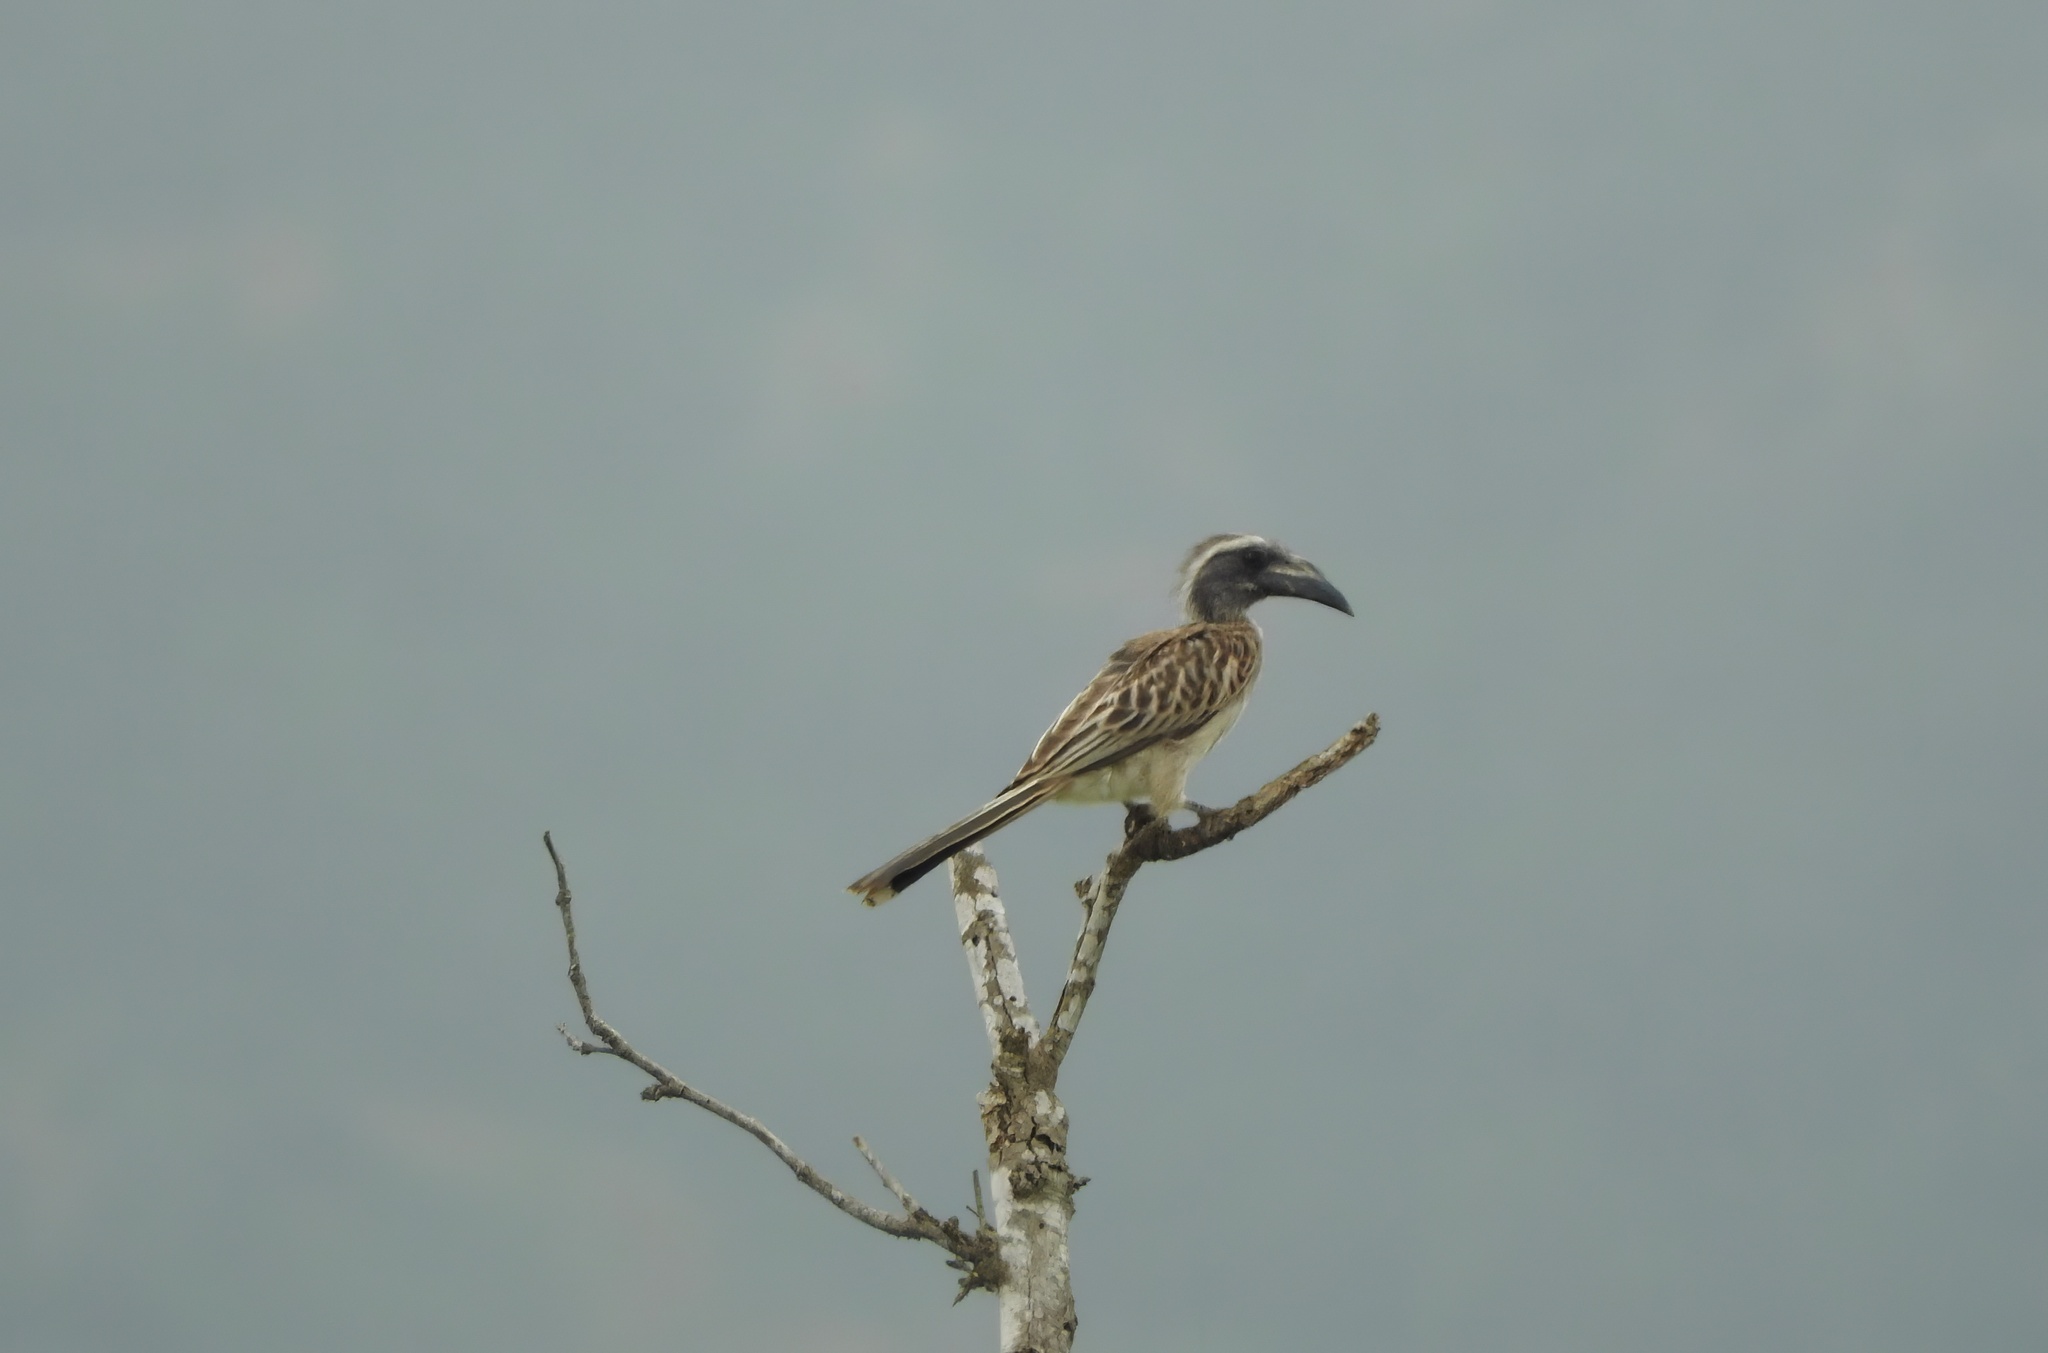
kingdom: Animalia
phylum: Chordata
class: Aves
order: Bucerotiformes
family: Bucerotidae
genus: Lophoceros
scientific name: Lophoceros nasutus
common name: African grey hornbill
